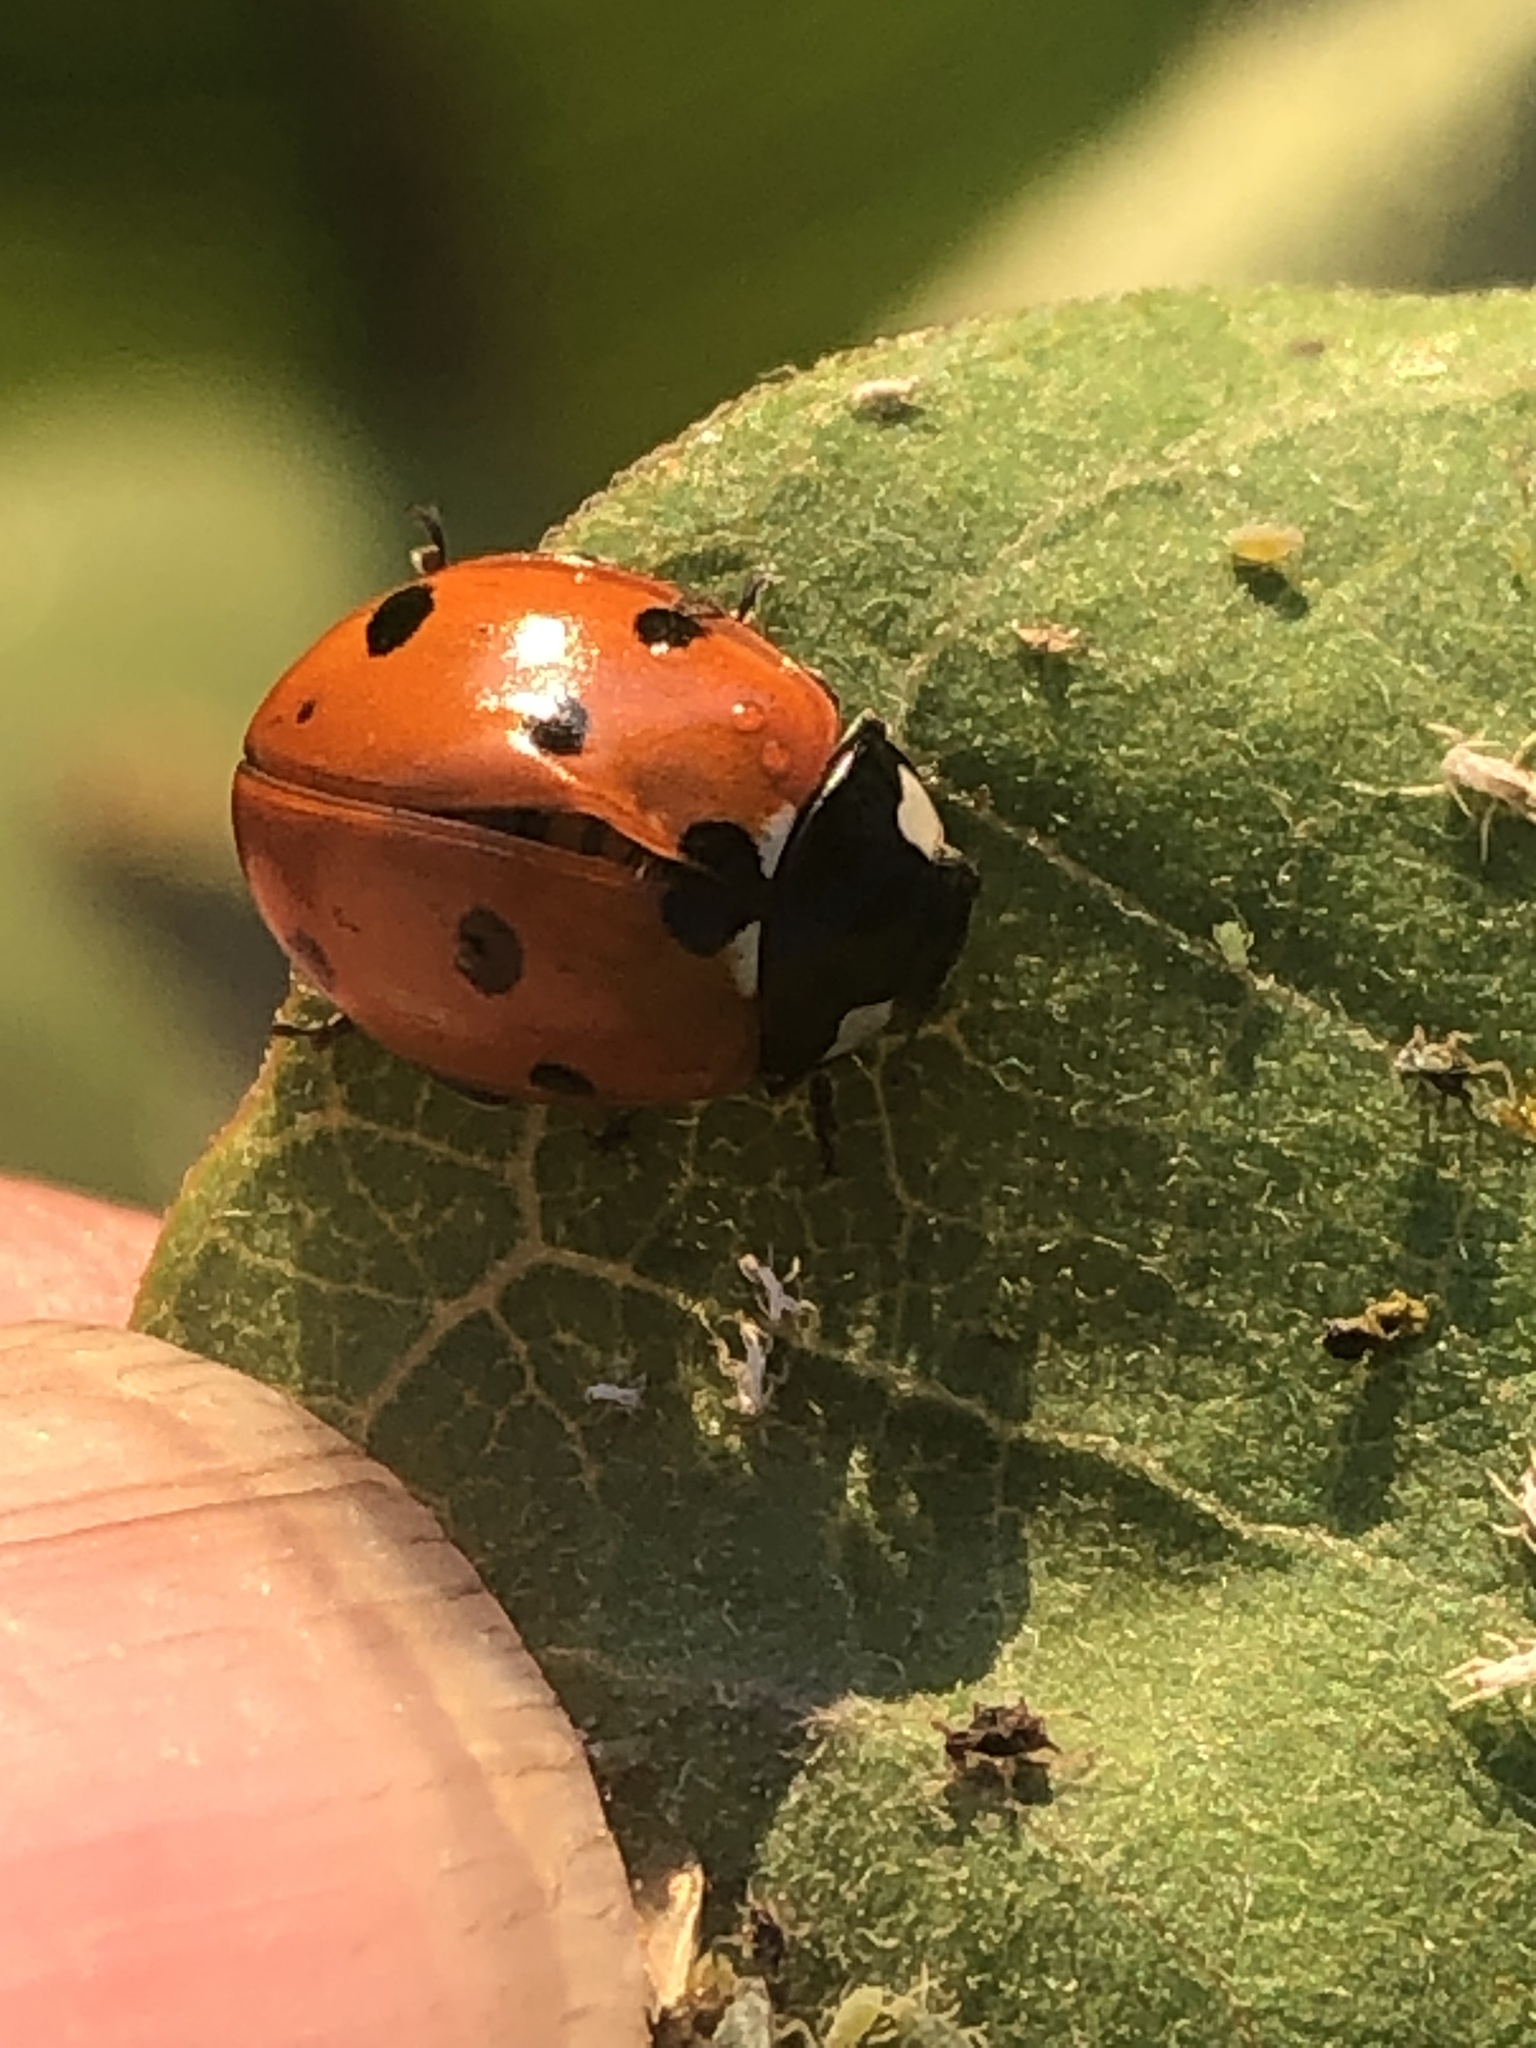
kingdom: Animalia
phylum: Arthropoda
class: Insecta
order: Coleoptera
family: Coccinellidae
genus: Coccinella
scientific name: Coccinella septempunctata
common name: Sevenspotted lady beetle
